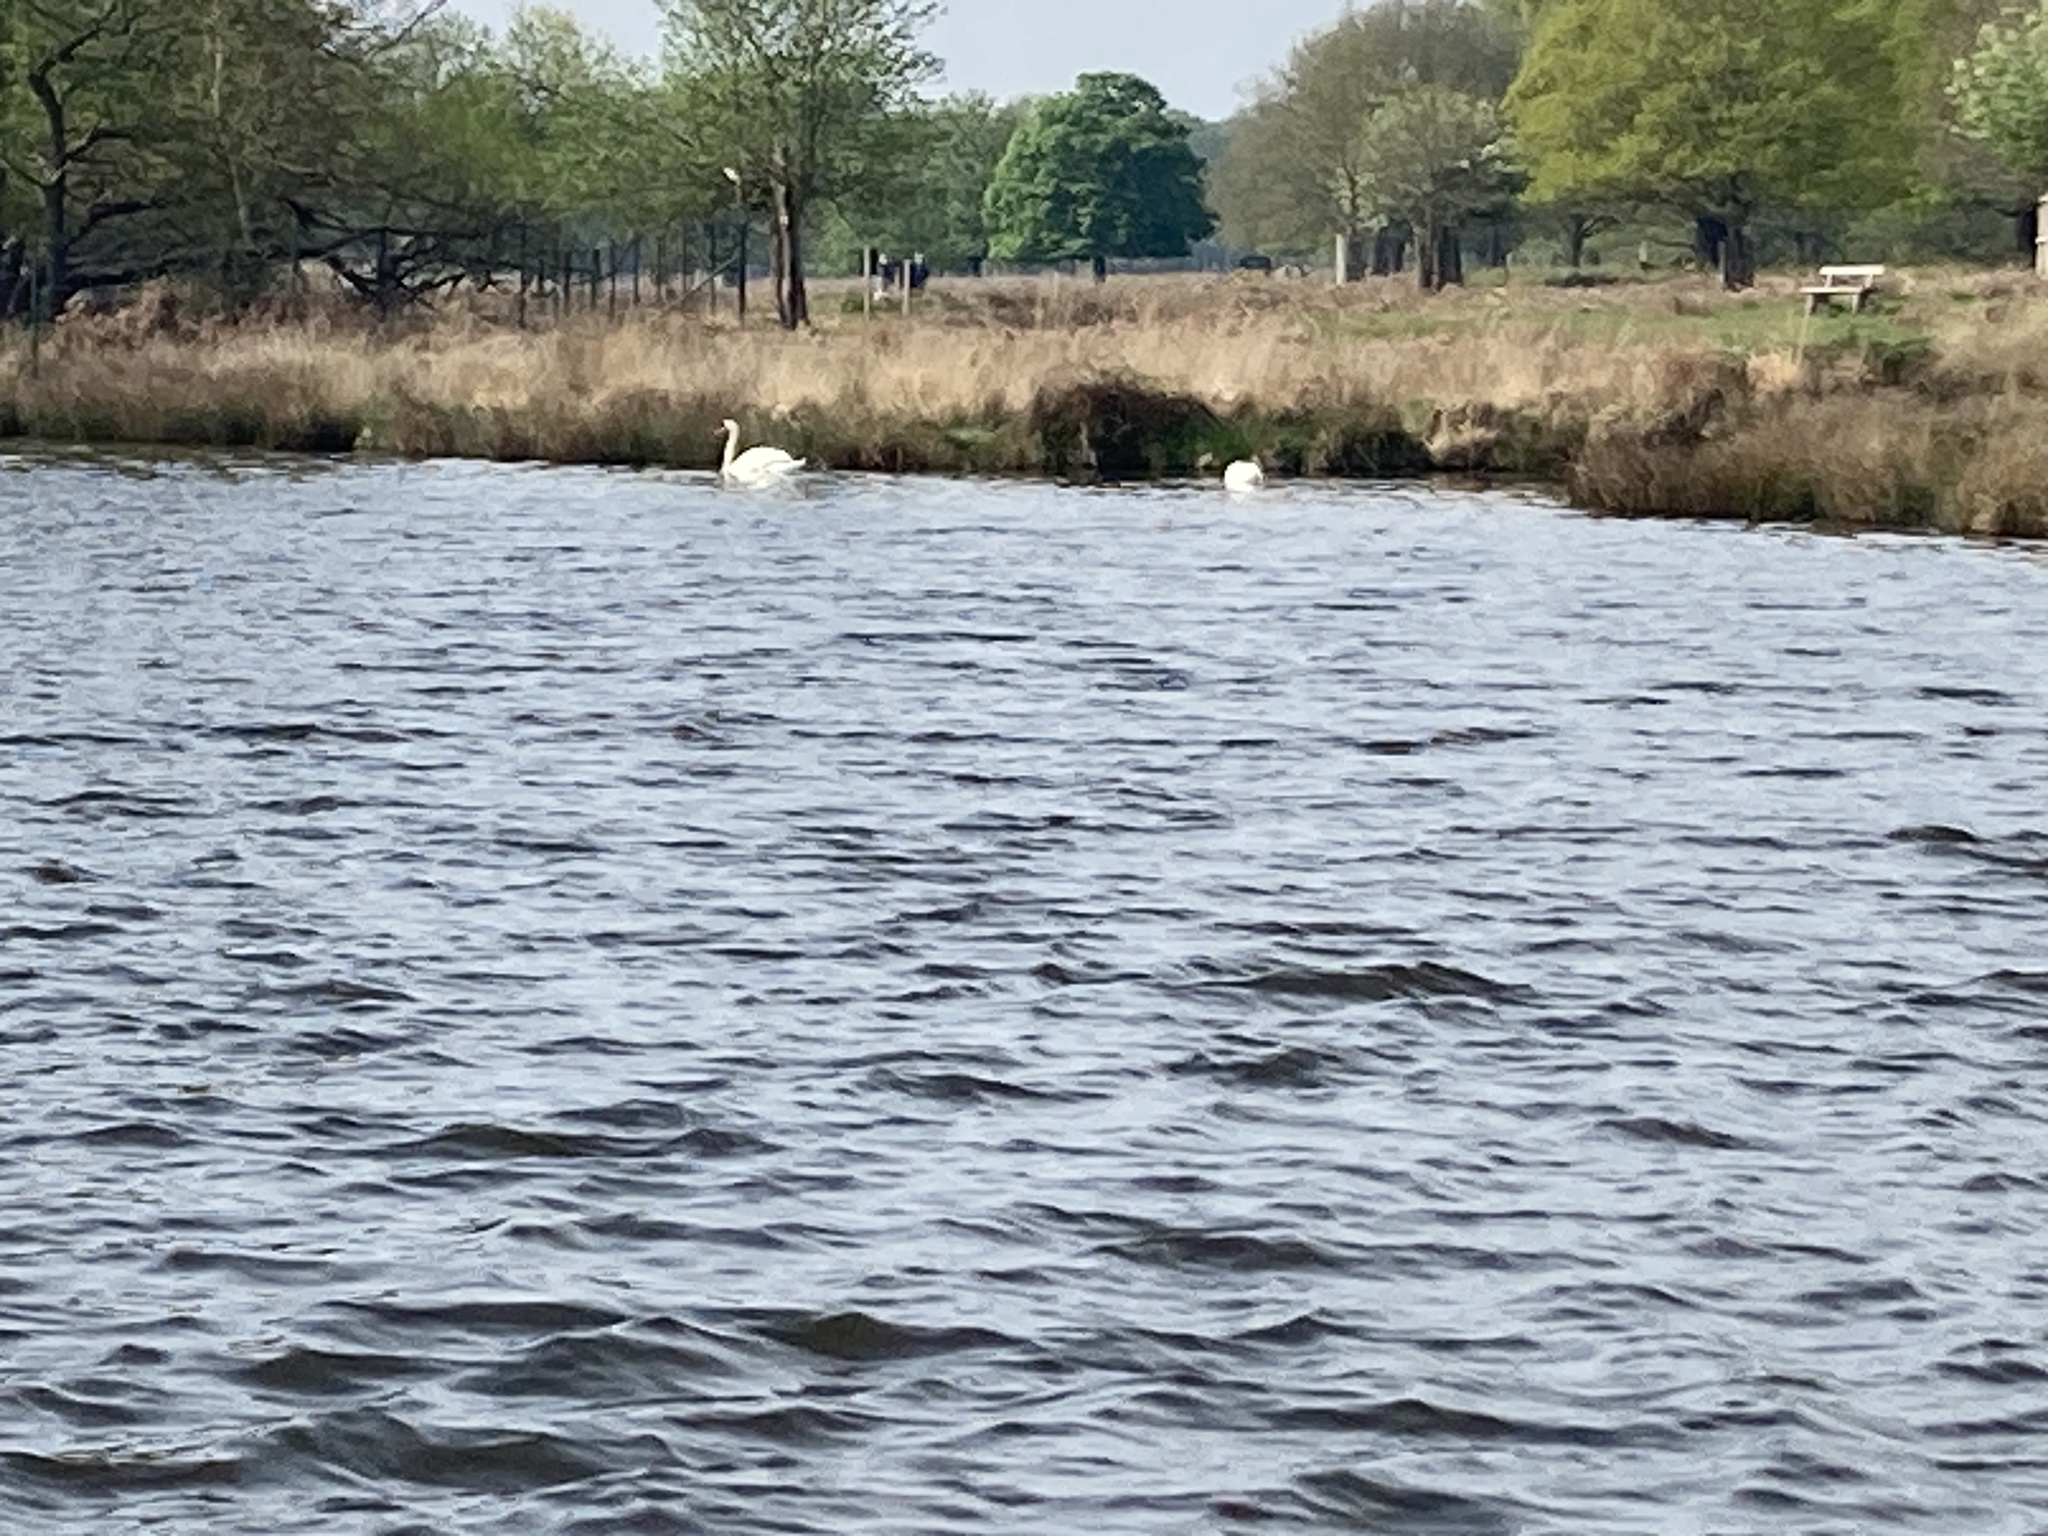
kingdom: Animalia
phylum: Chordata
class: Aves
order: Anseriformes
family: Anatidae
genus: Cygnus
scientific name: Cygnus olor
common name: Mute swan
